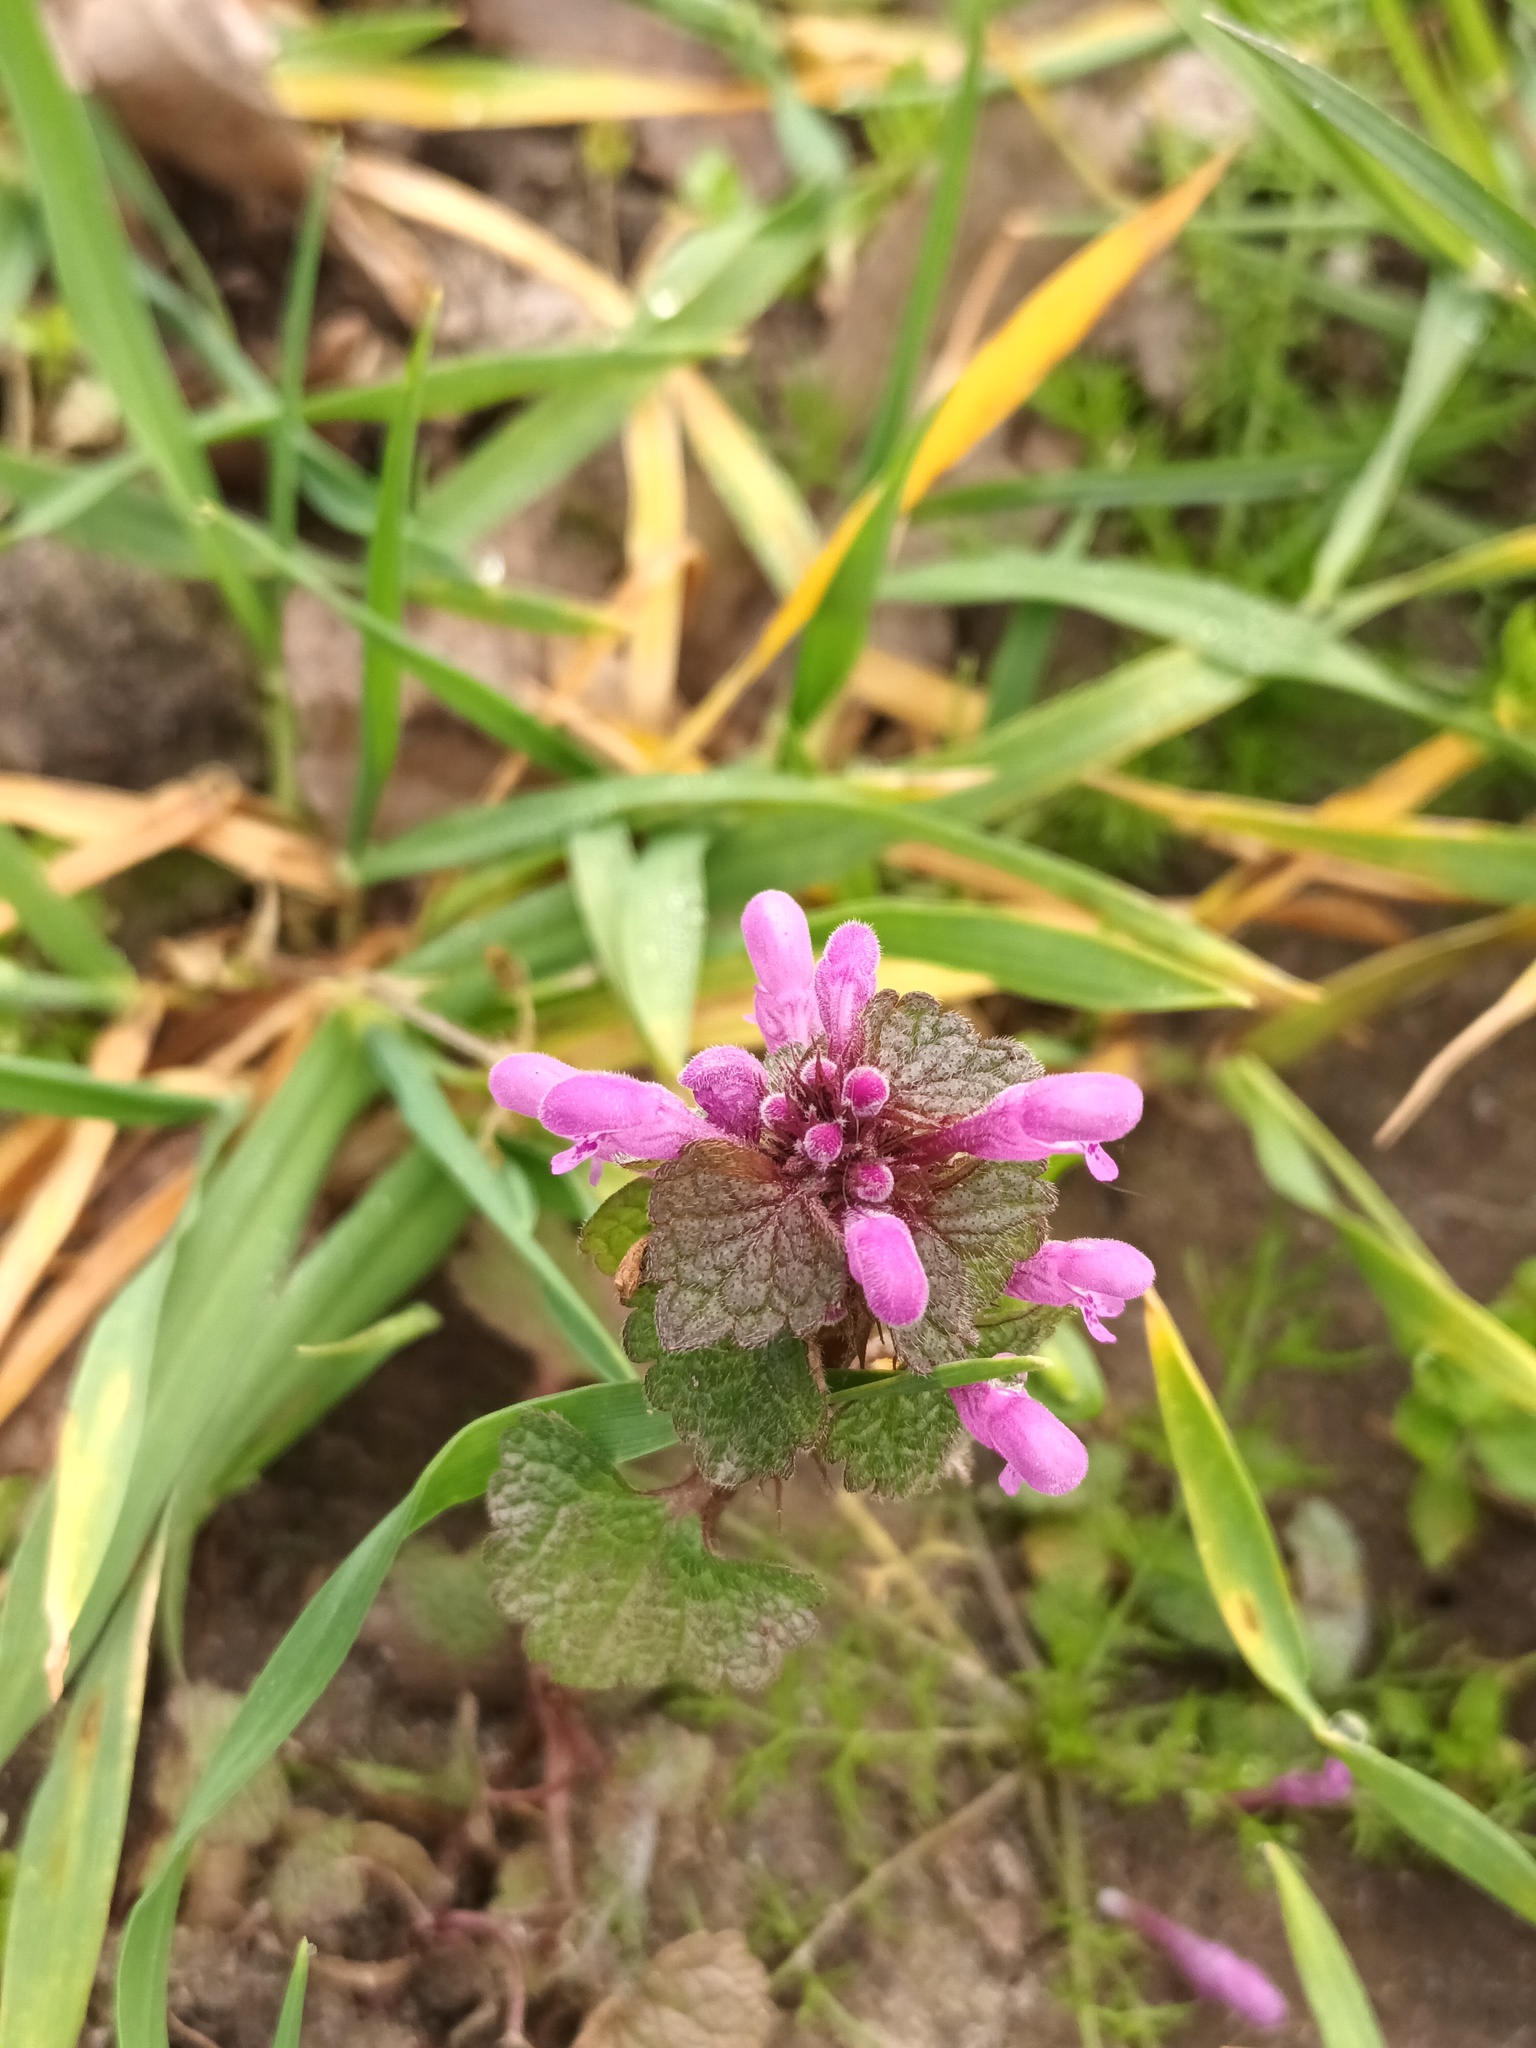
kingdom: Plantae
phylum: Tracheophyta
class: Magnoliopsida
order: Lamiales
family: Lamiaceae
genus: Lamium
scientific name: Lamium purpureum
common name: Red dead-nettle
